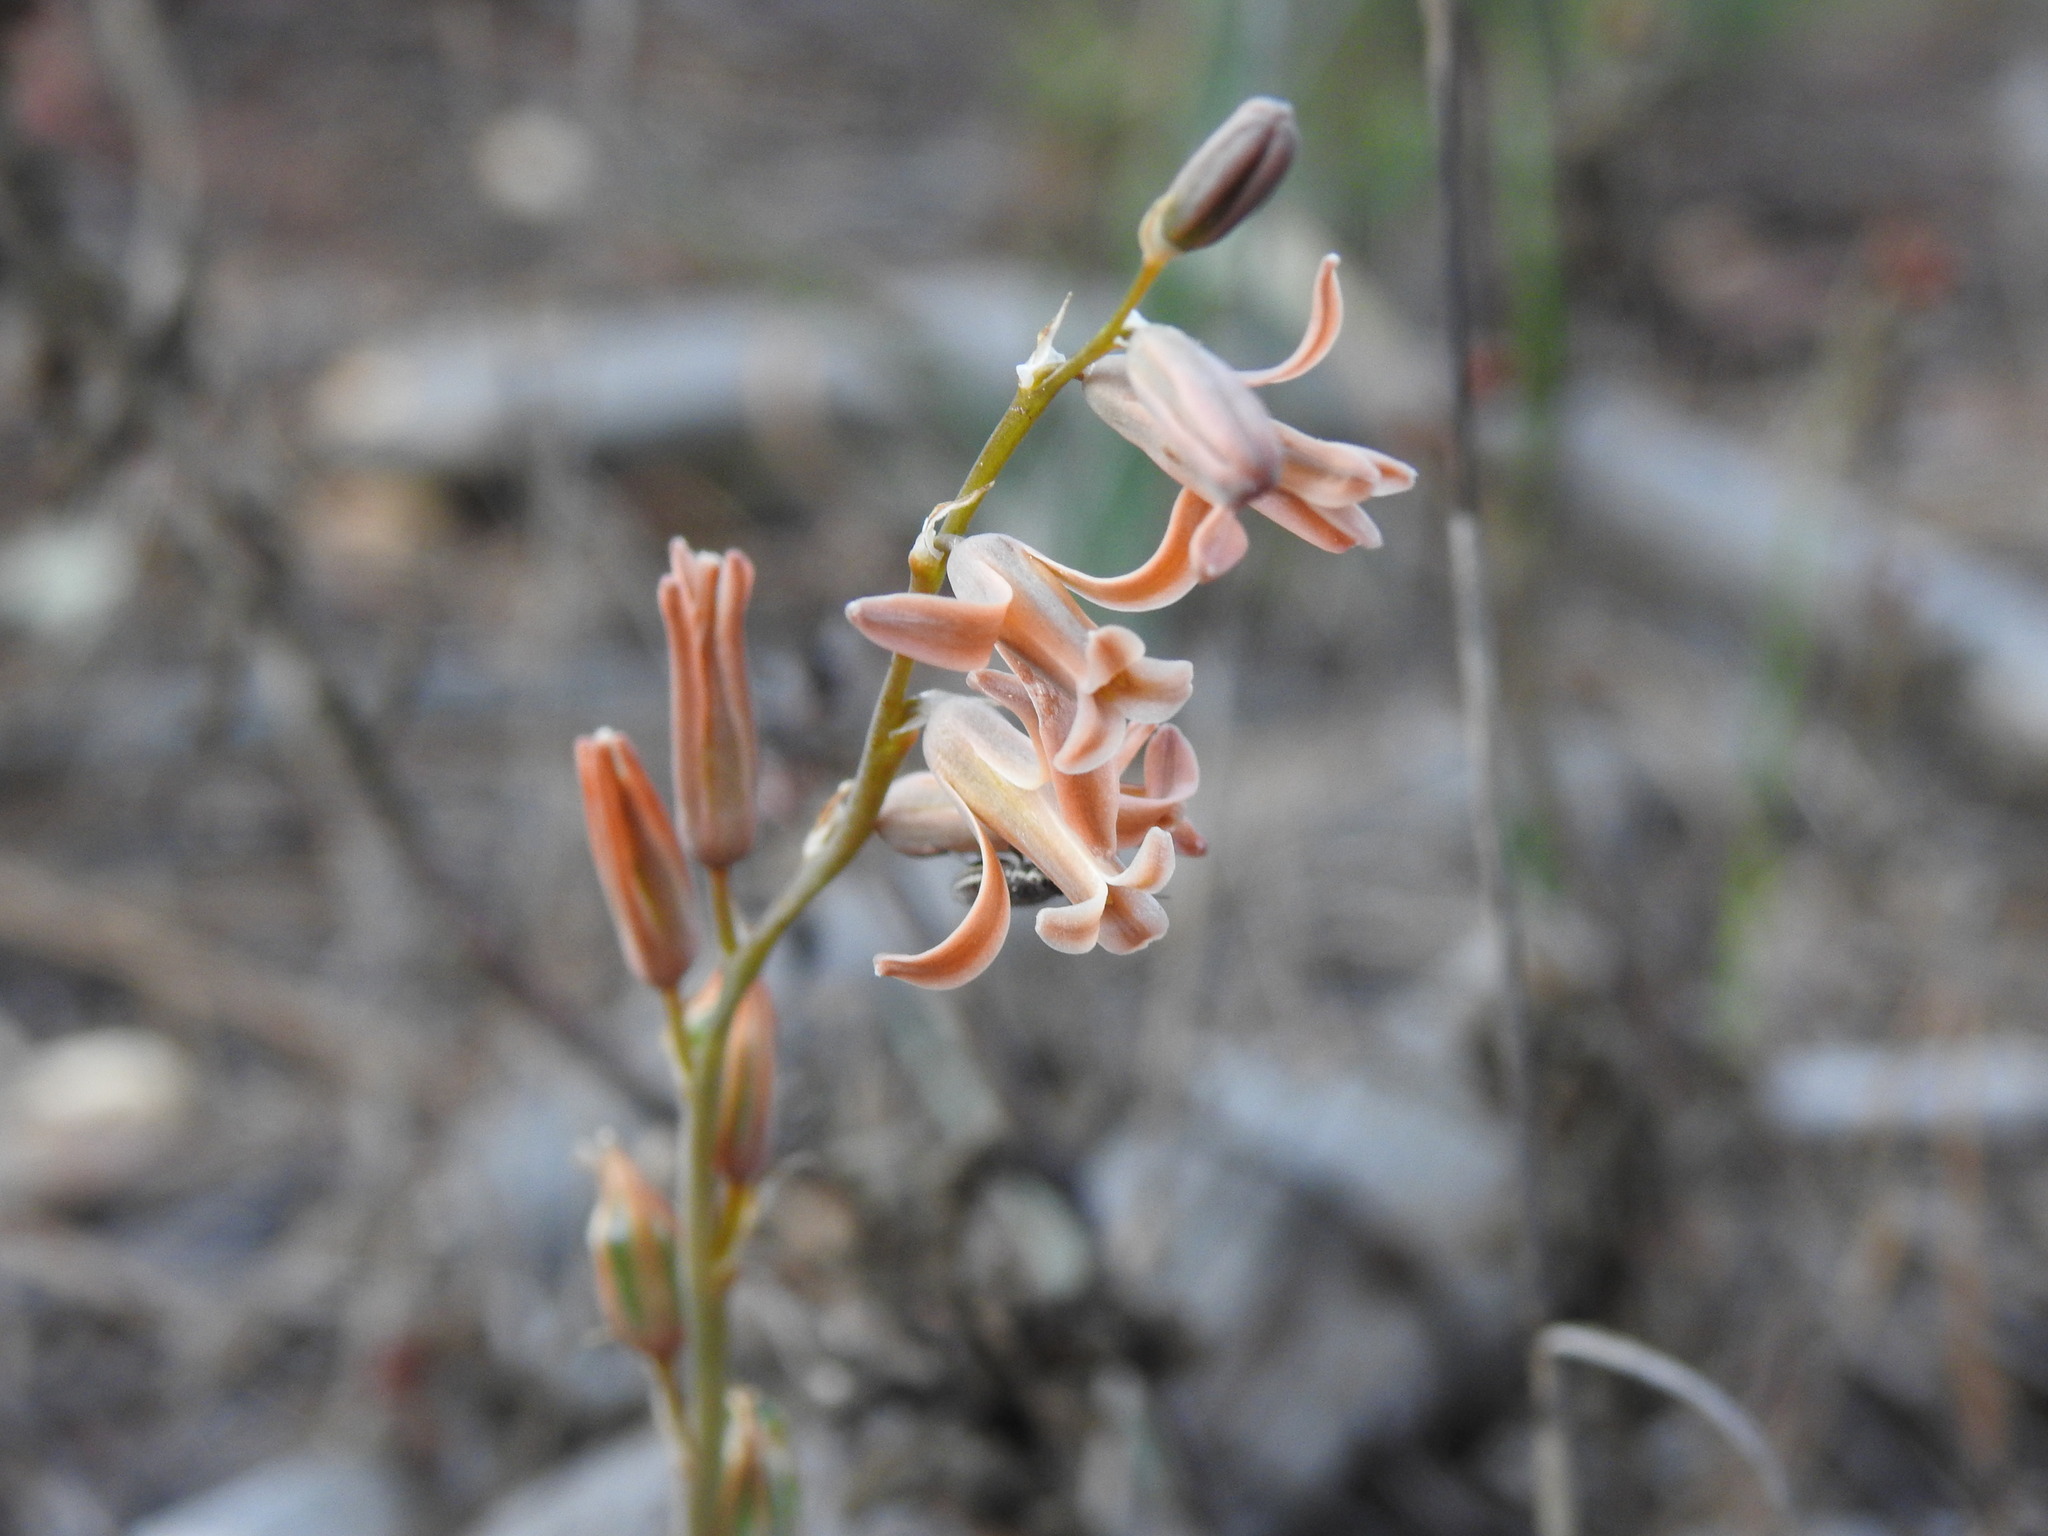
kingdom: Plantae
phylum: Tracheophyta
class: Liliopsida
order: Asparagales
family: Asparagaceae
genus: Dipcadi
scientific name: Dipcadi serotinum
